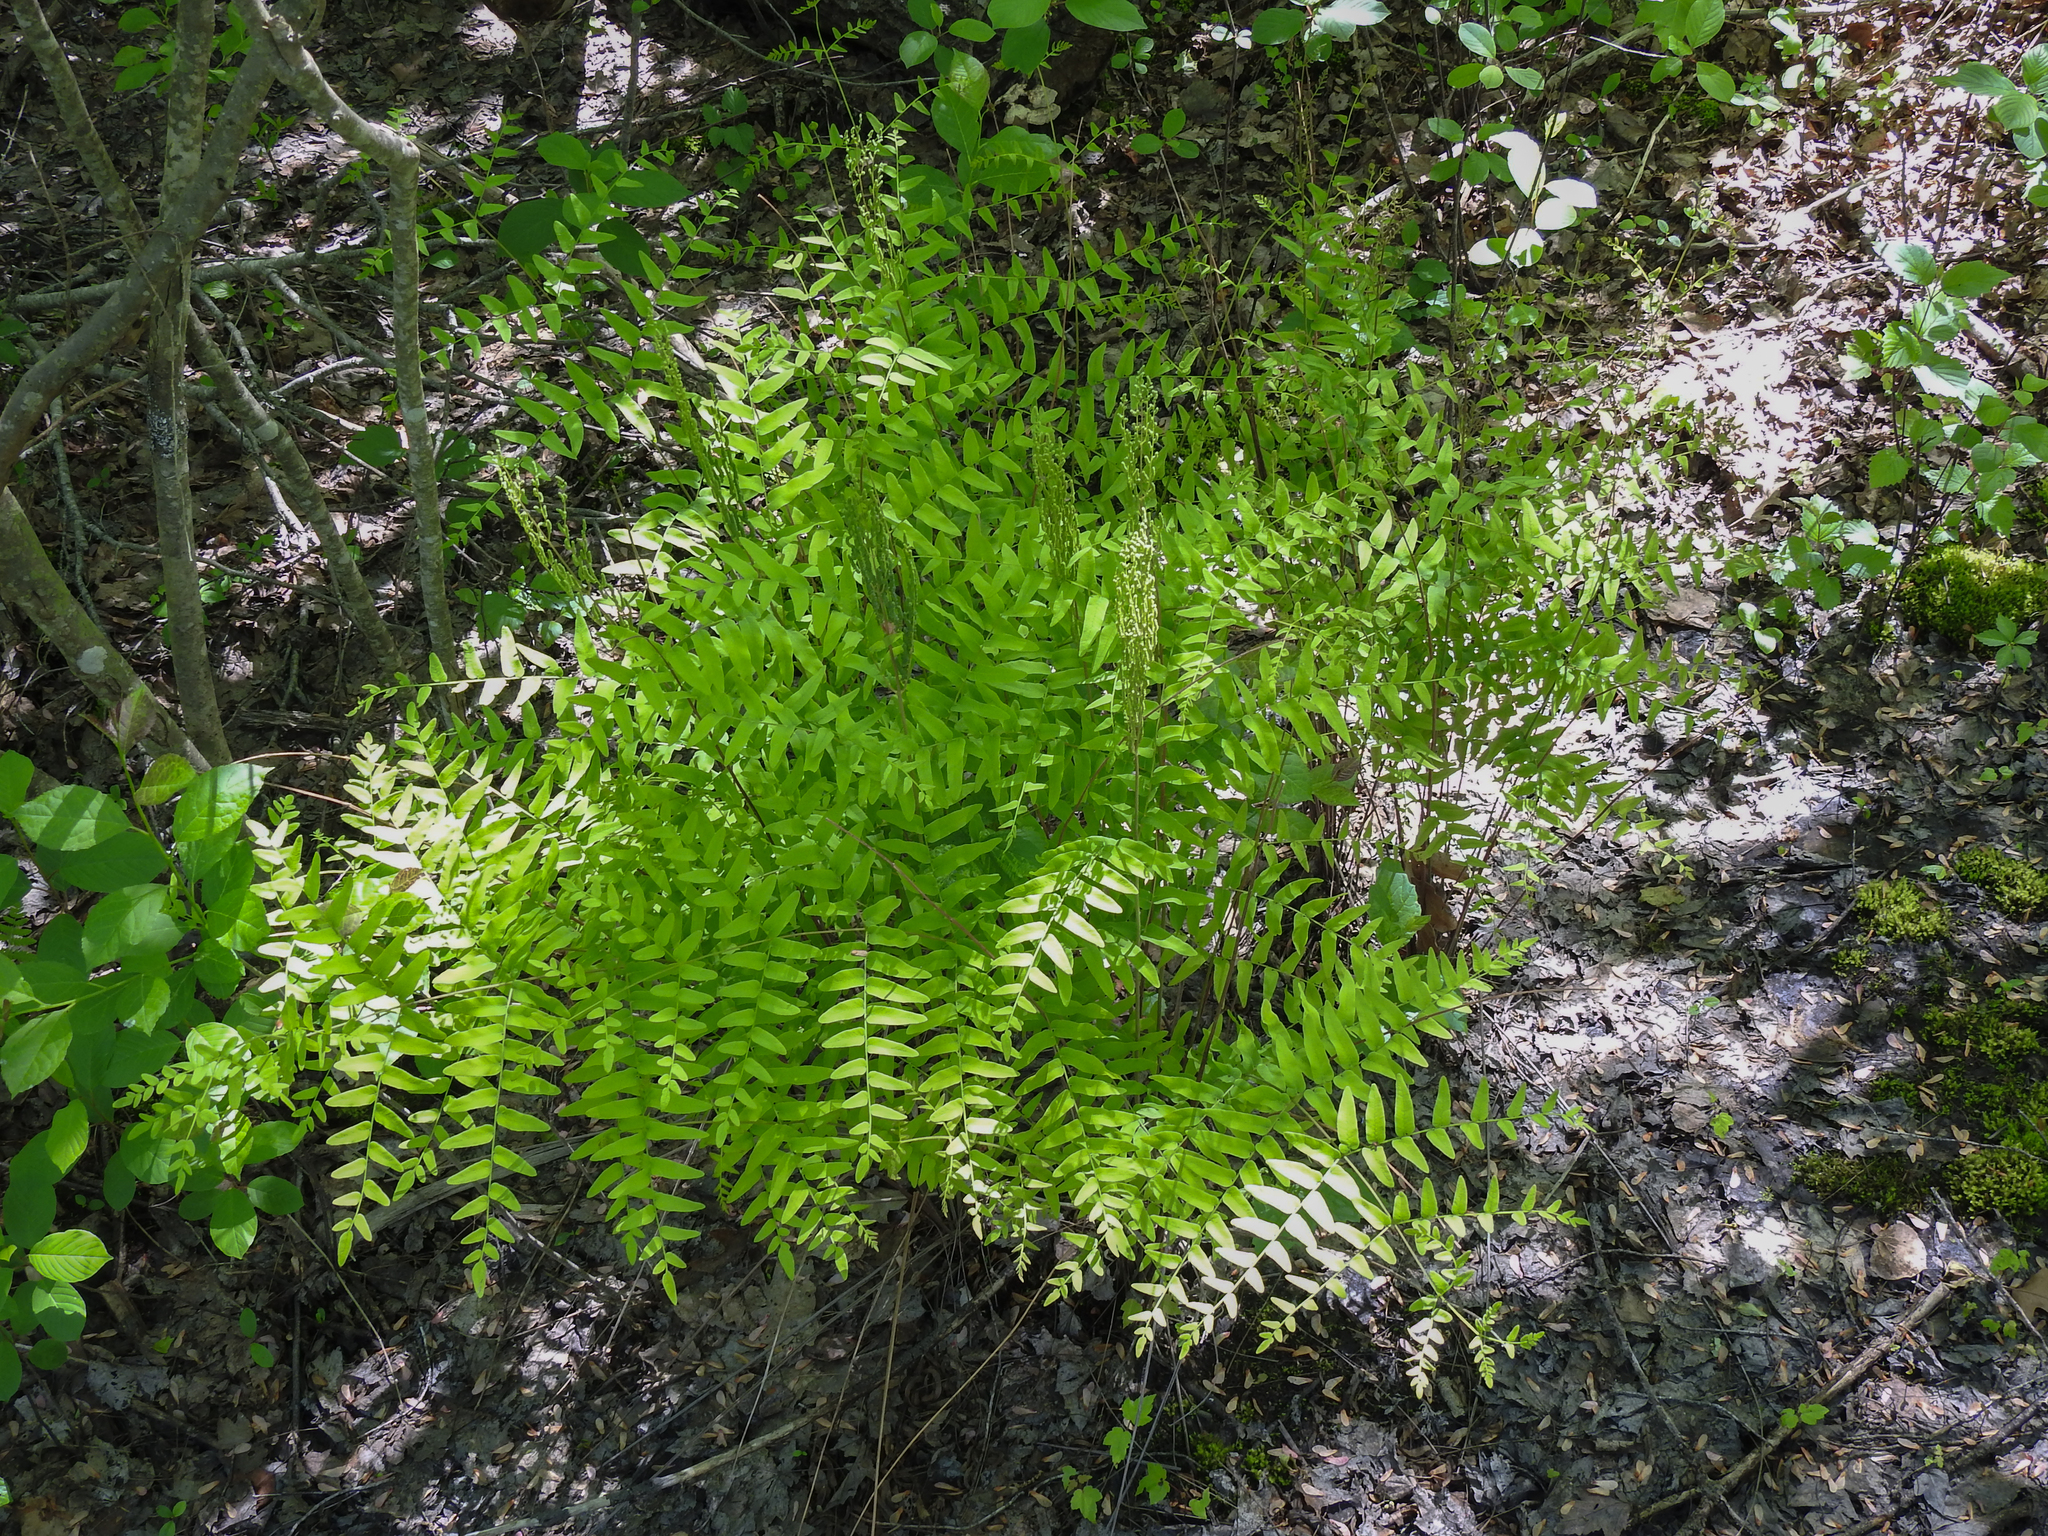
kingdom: Plantae
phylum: Tracheophyta
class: Polypodiopsida
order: Osmundales
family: Osmundaceae
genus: Osmunda
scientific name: Osmunda spectabilis
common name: American royal fern
